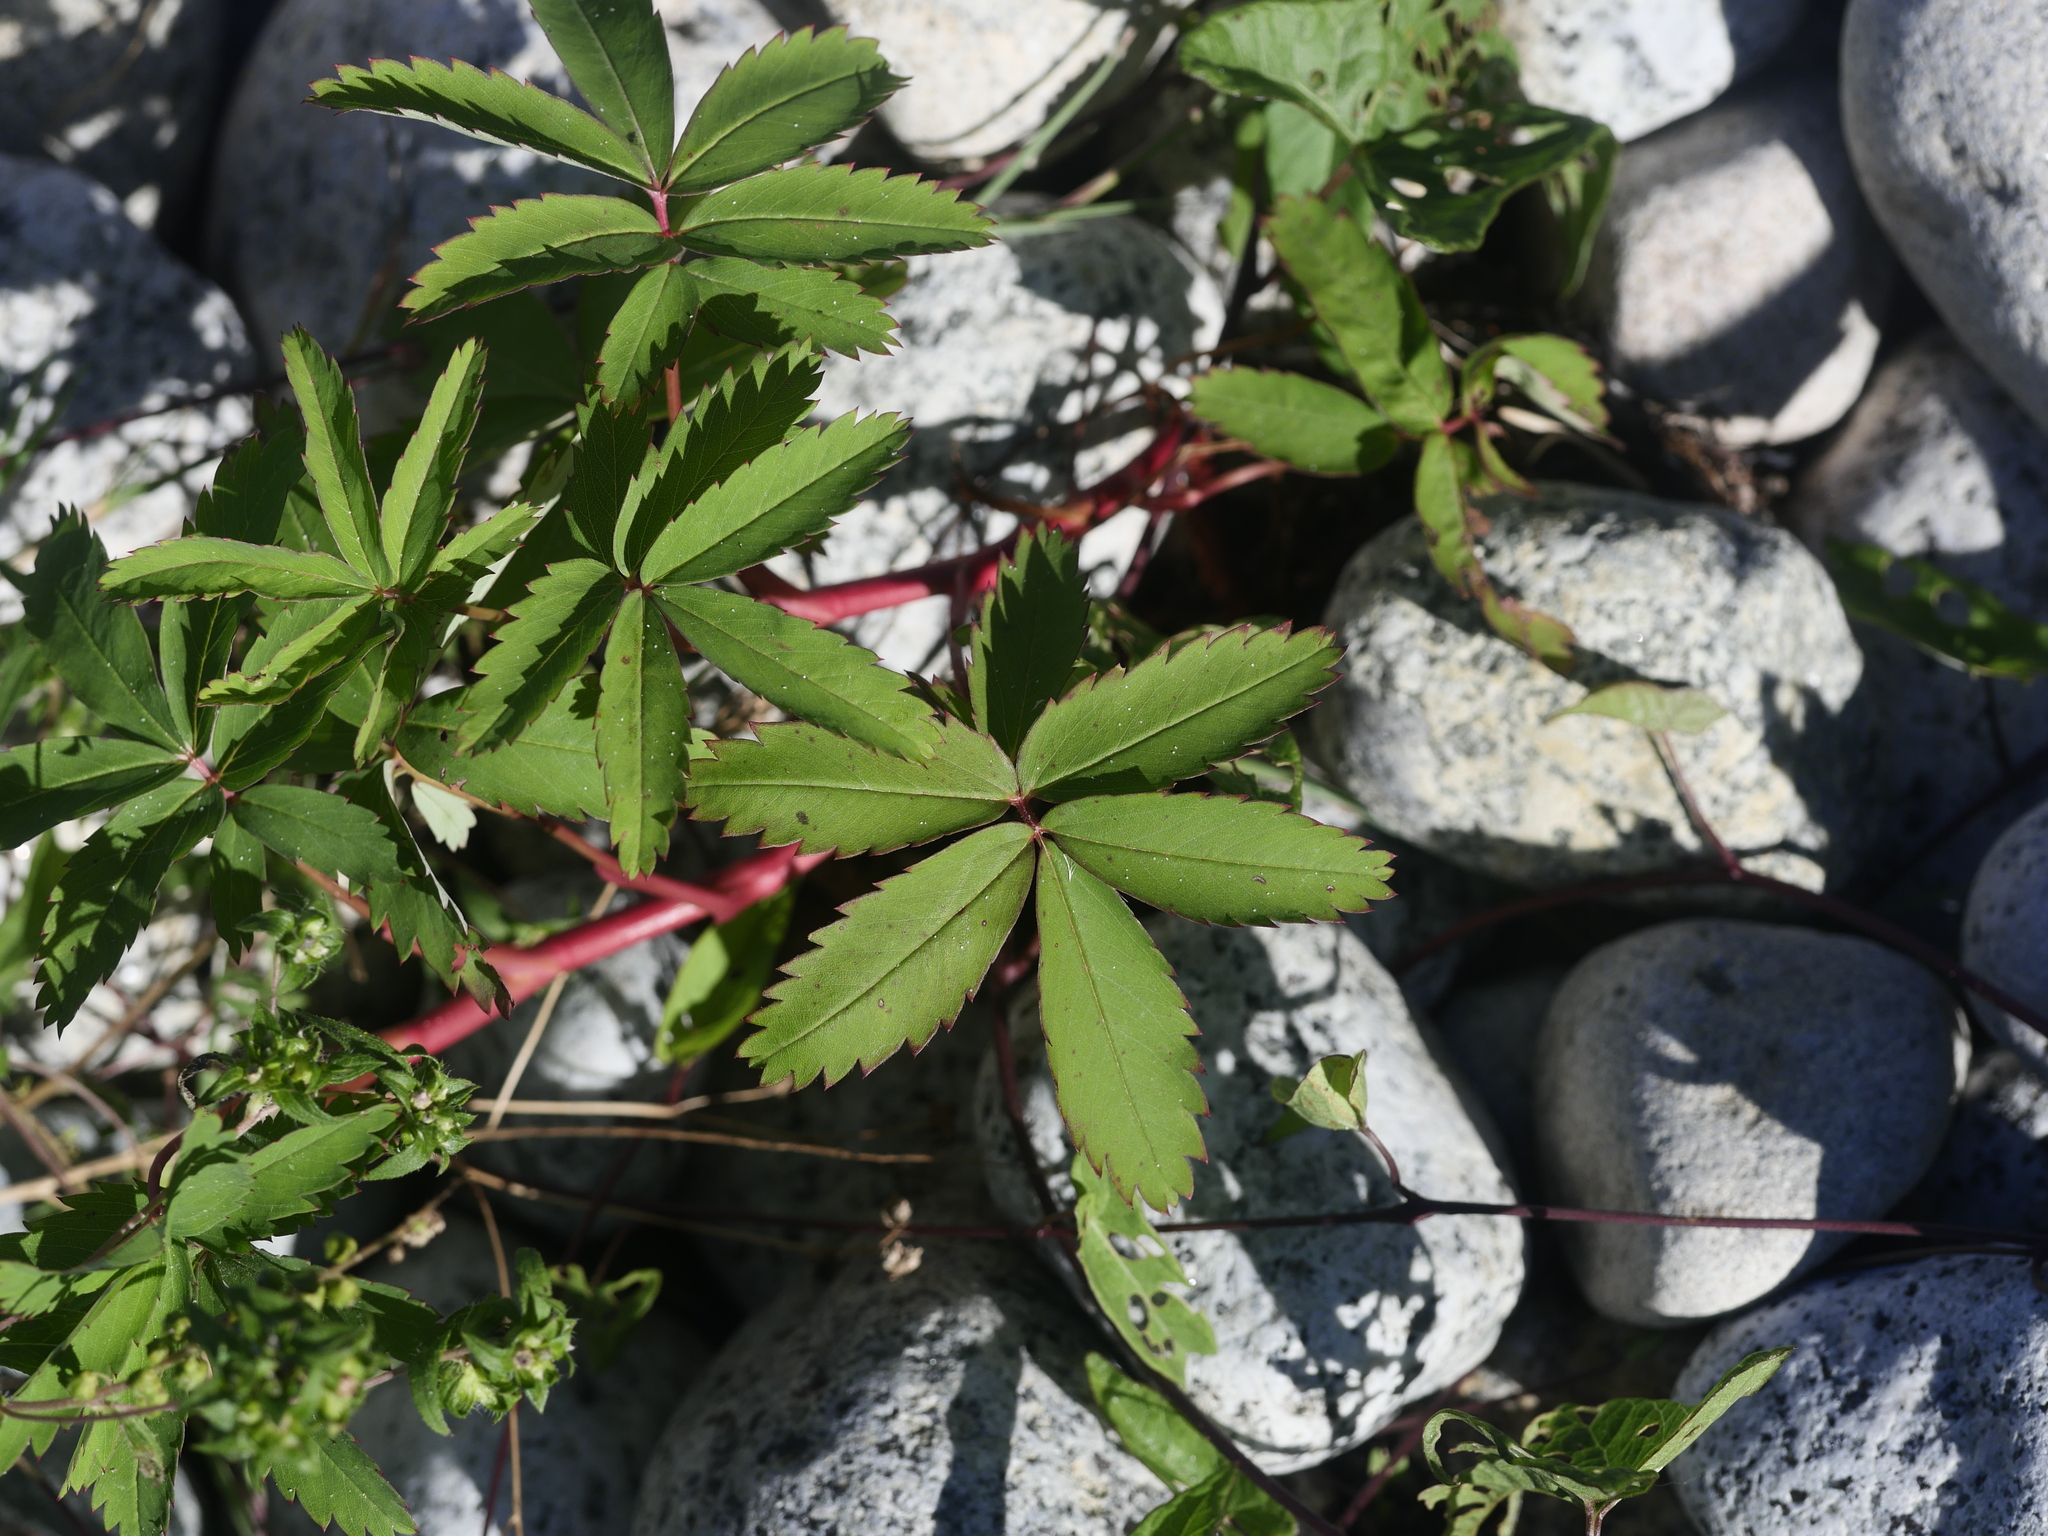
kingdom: Plantae
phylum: Tracheophyta
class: Magnoliopsida
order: Rosales
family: Rosaceae
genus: Comarum
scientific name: Comarum palustre
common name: Marsh cinquefoil
